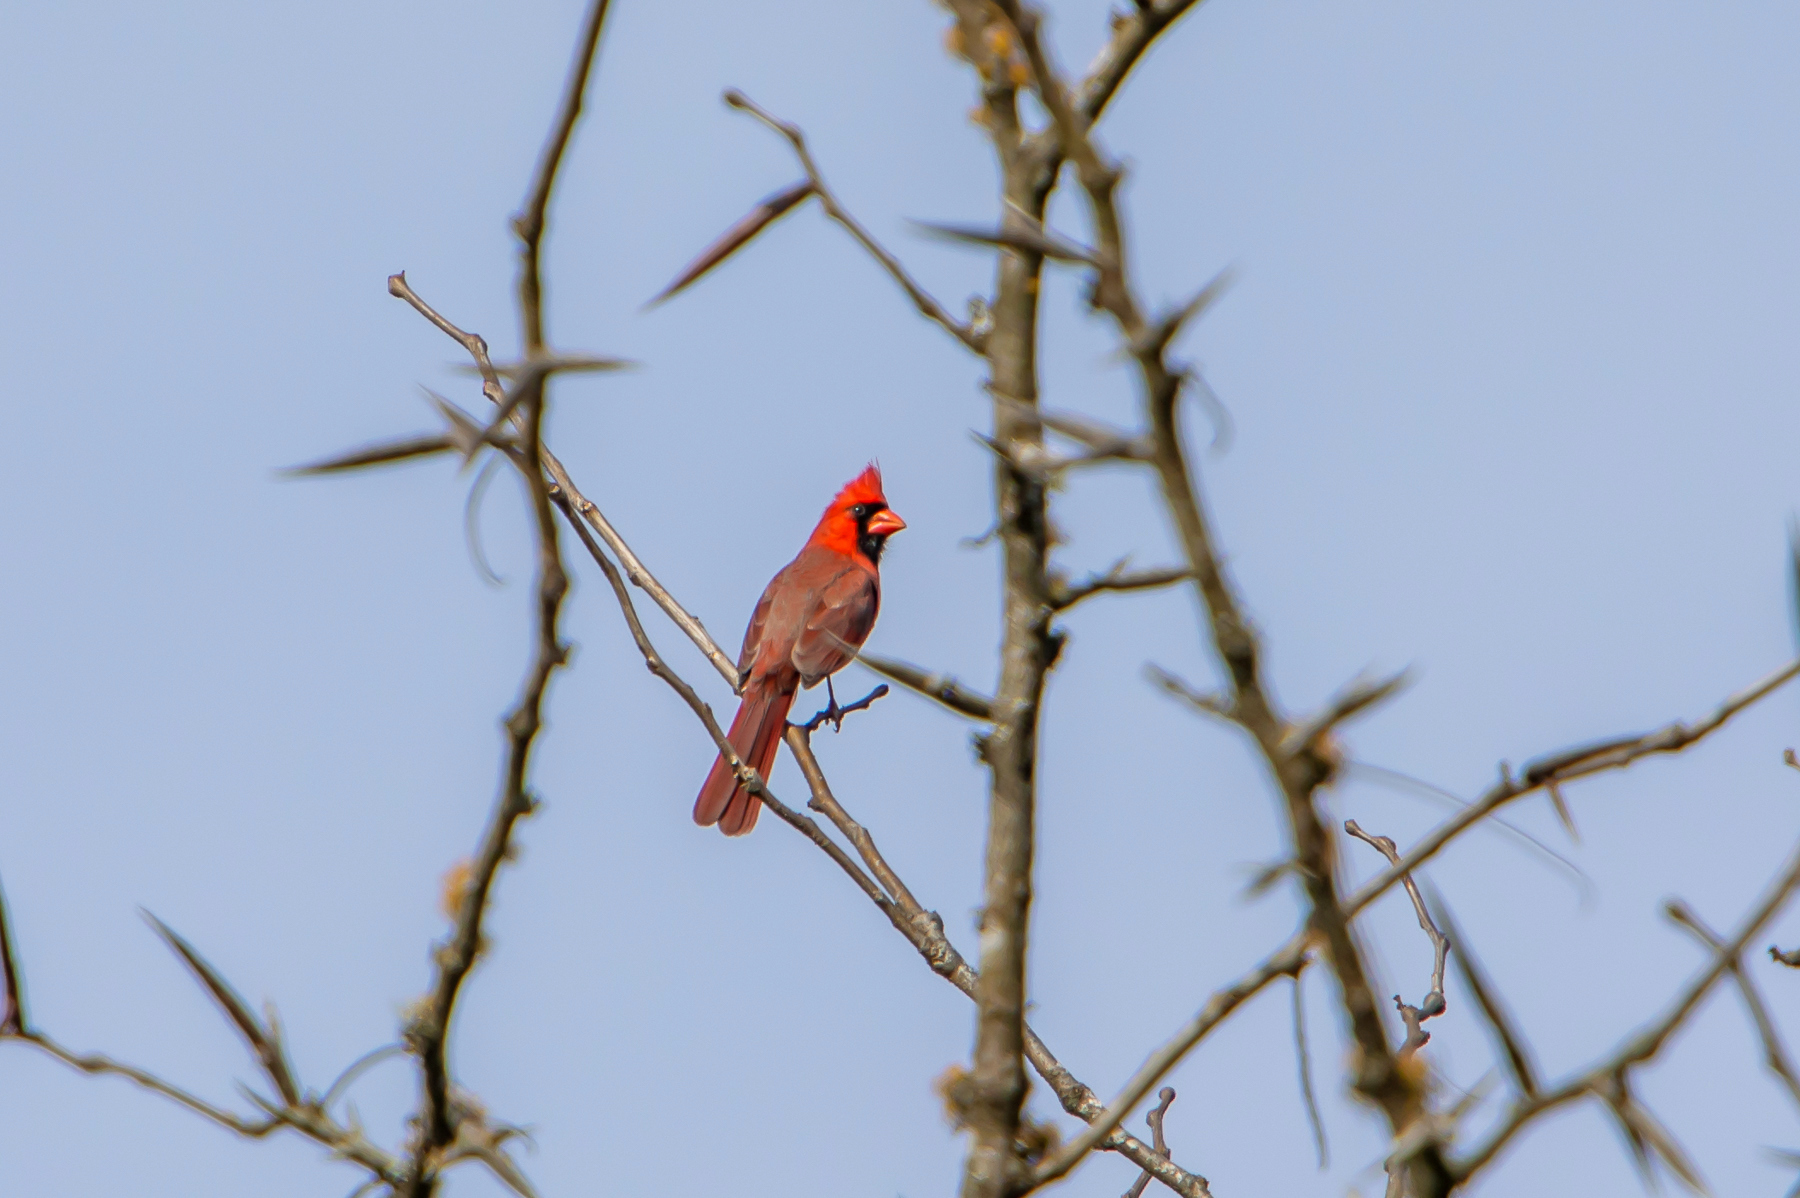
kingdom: Animalia
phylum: Chordata
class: Aves
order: Passeriformes
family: Cardinalidae
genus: Cardinalis
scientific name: Cardinalis cardinalis
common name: Northern cardinal
